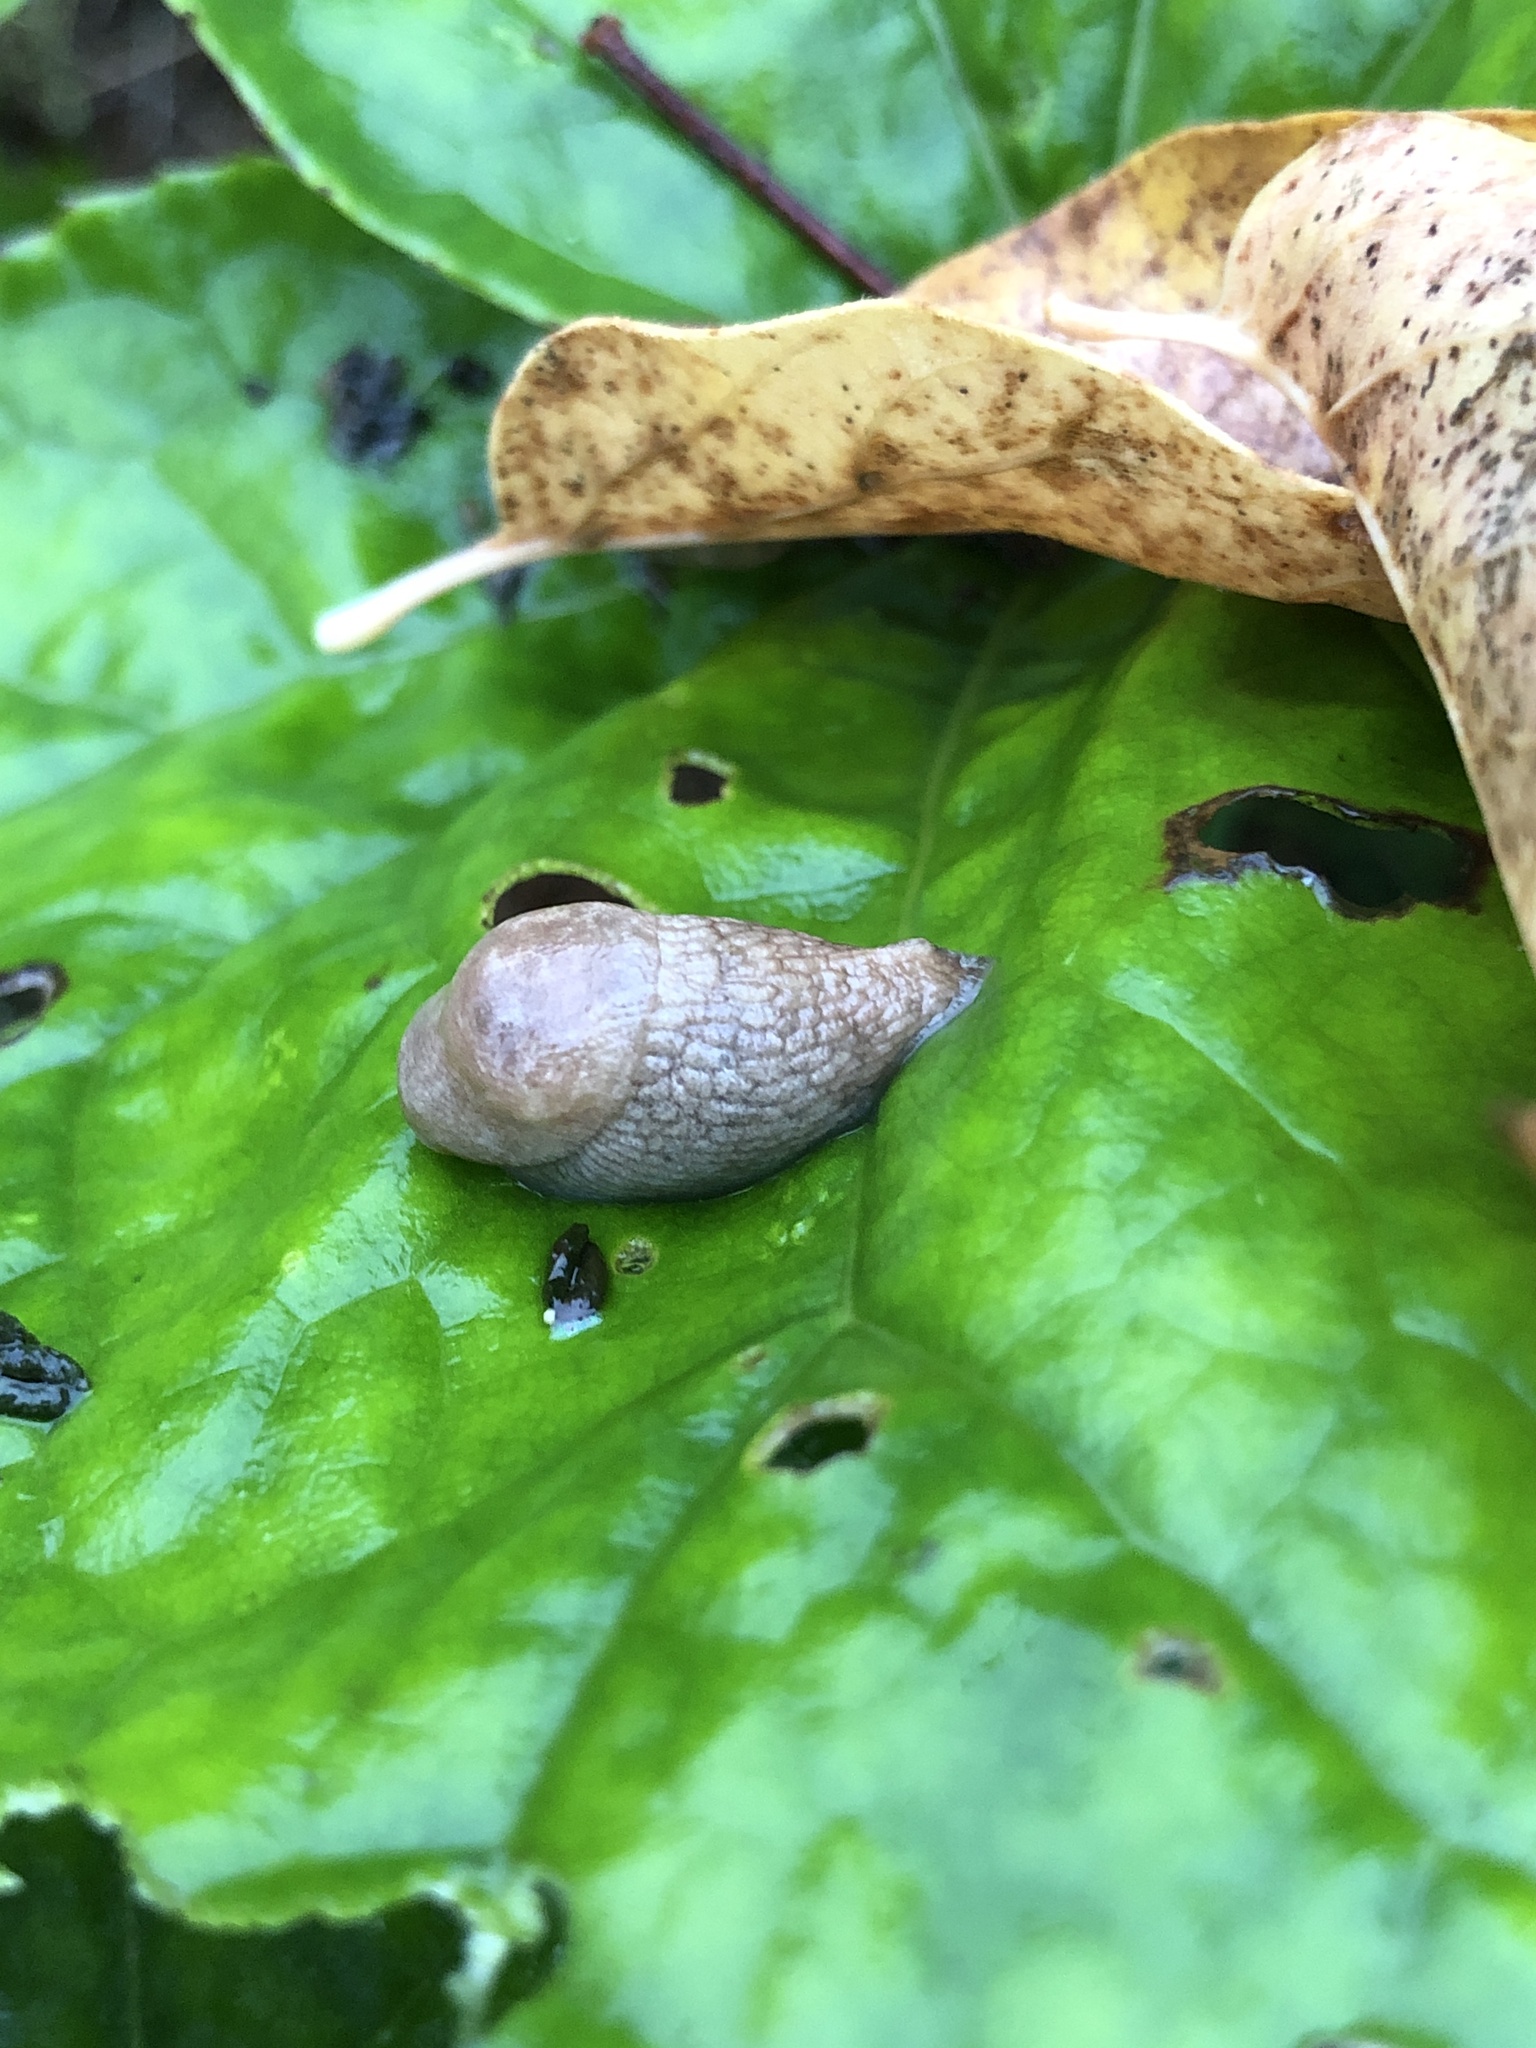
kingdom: Animalia
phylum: Mollusca
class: Gastropoda
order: Stylommatophora
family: Agriolimacidae
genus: Deroceras
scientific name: Deroceras reticulatum
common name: Gray field slug
